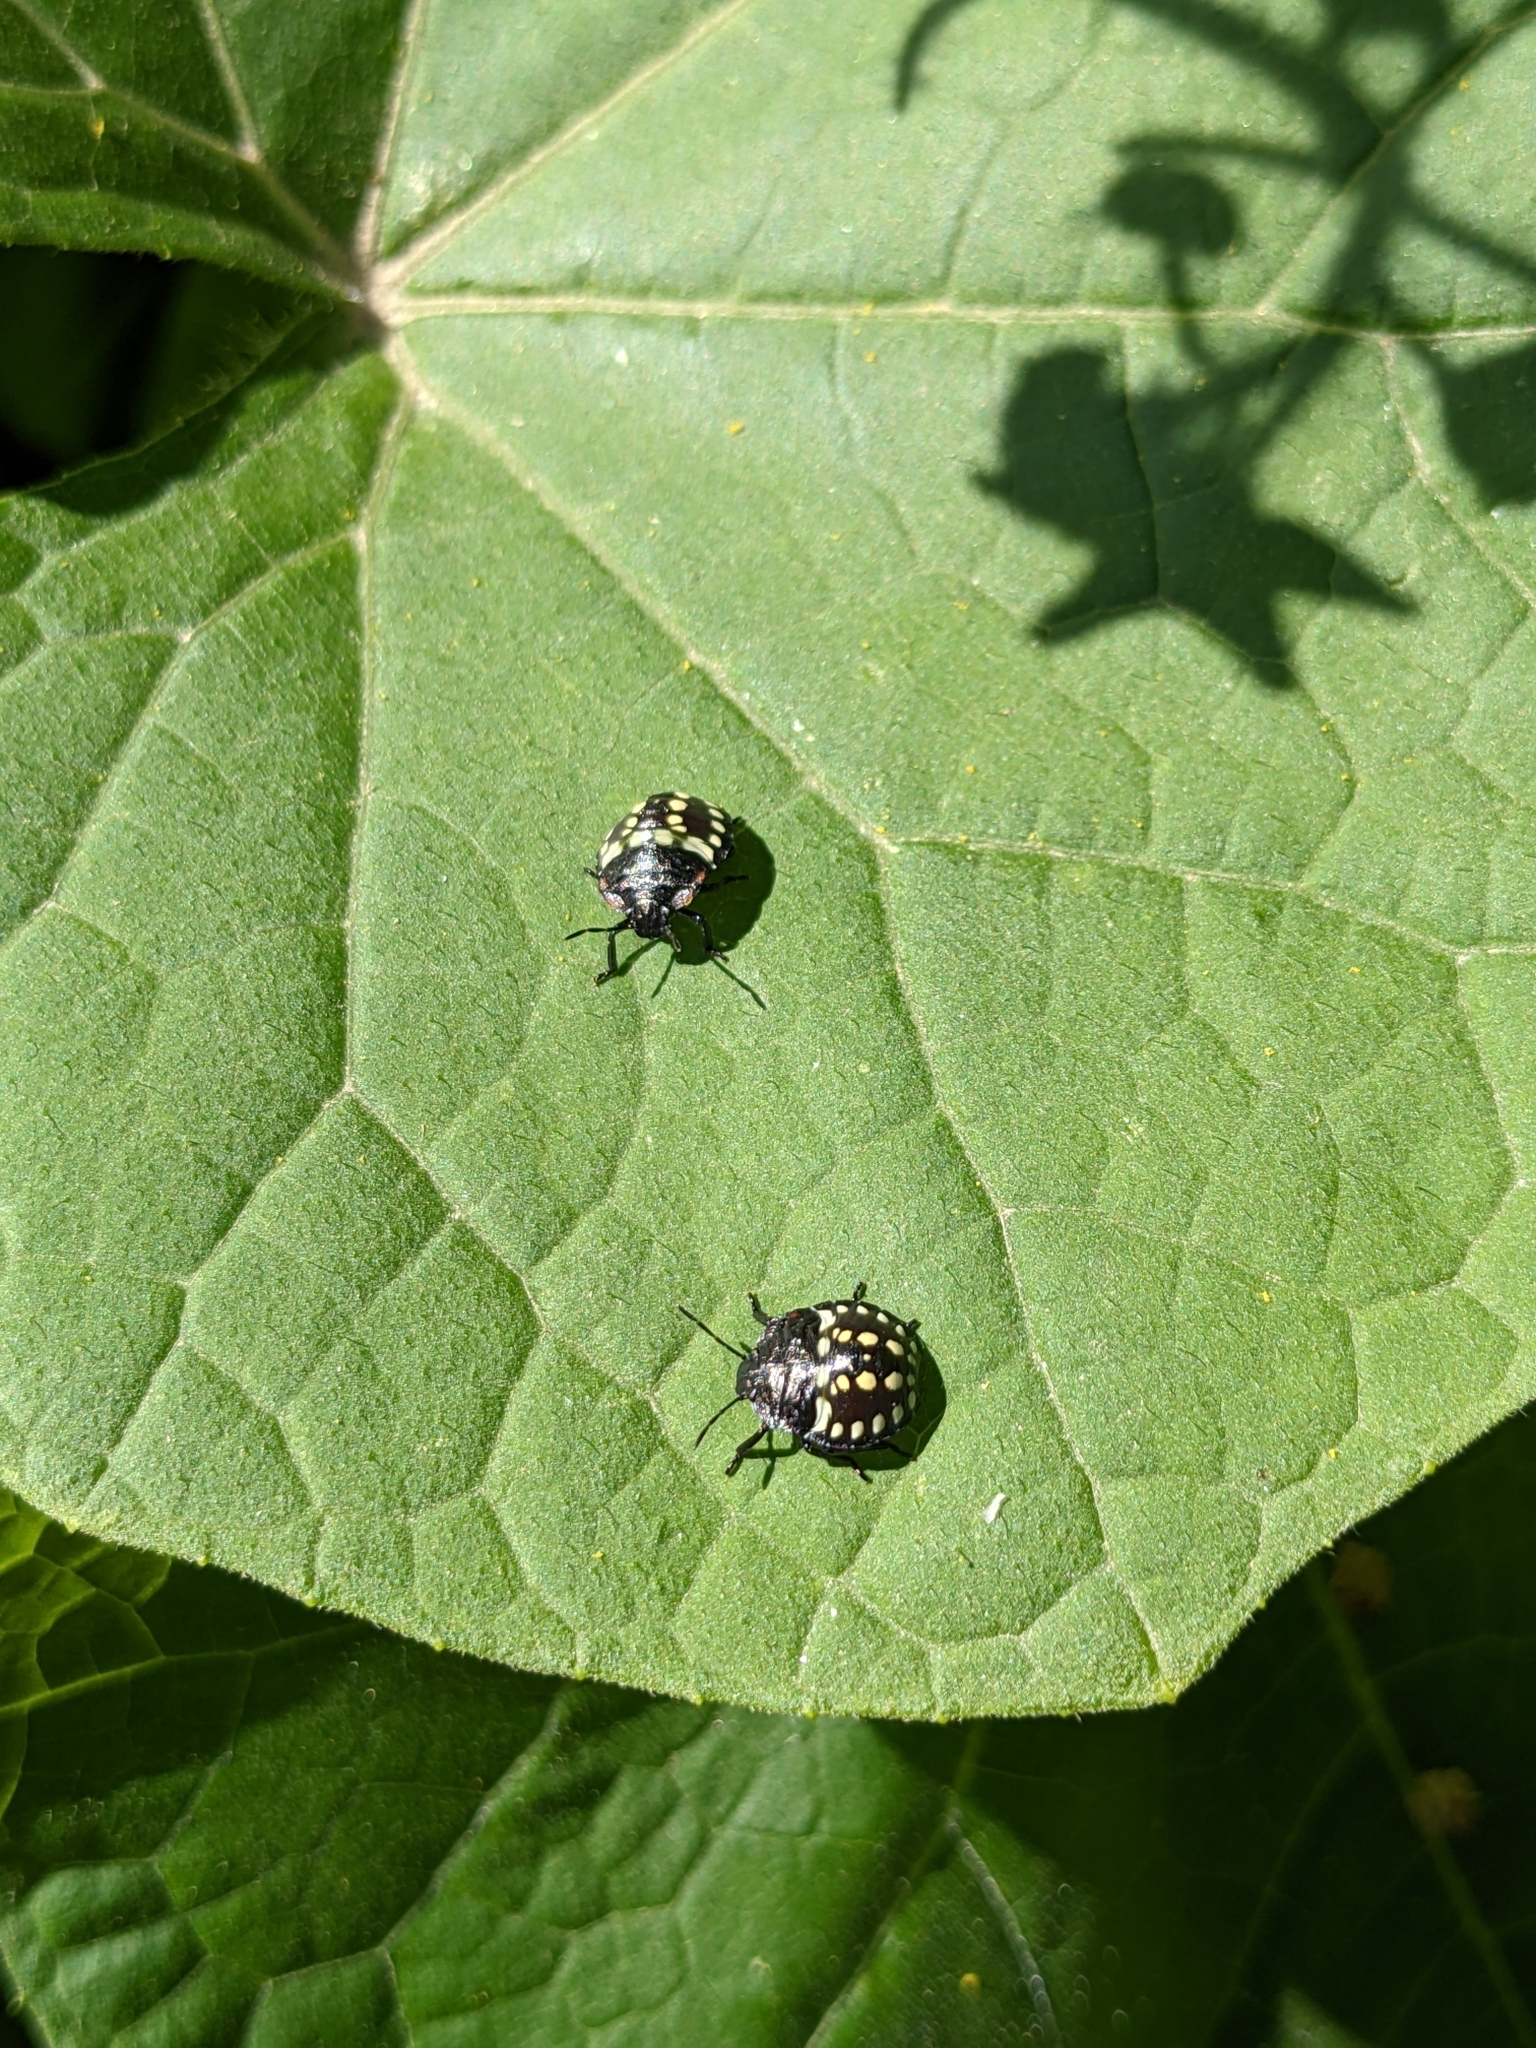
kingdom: Animalia
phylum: Arthropoda
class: Insecta
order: Hemiptera
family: Pentatomidae
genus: Nezara
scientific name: Nezara viridula
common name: Southern green stink bug
